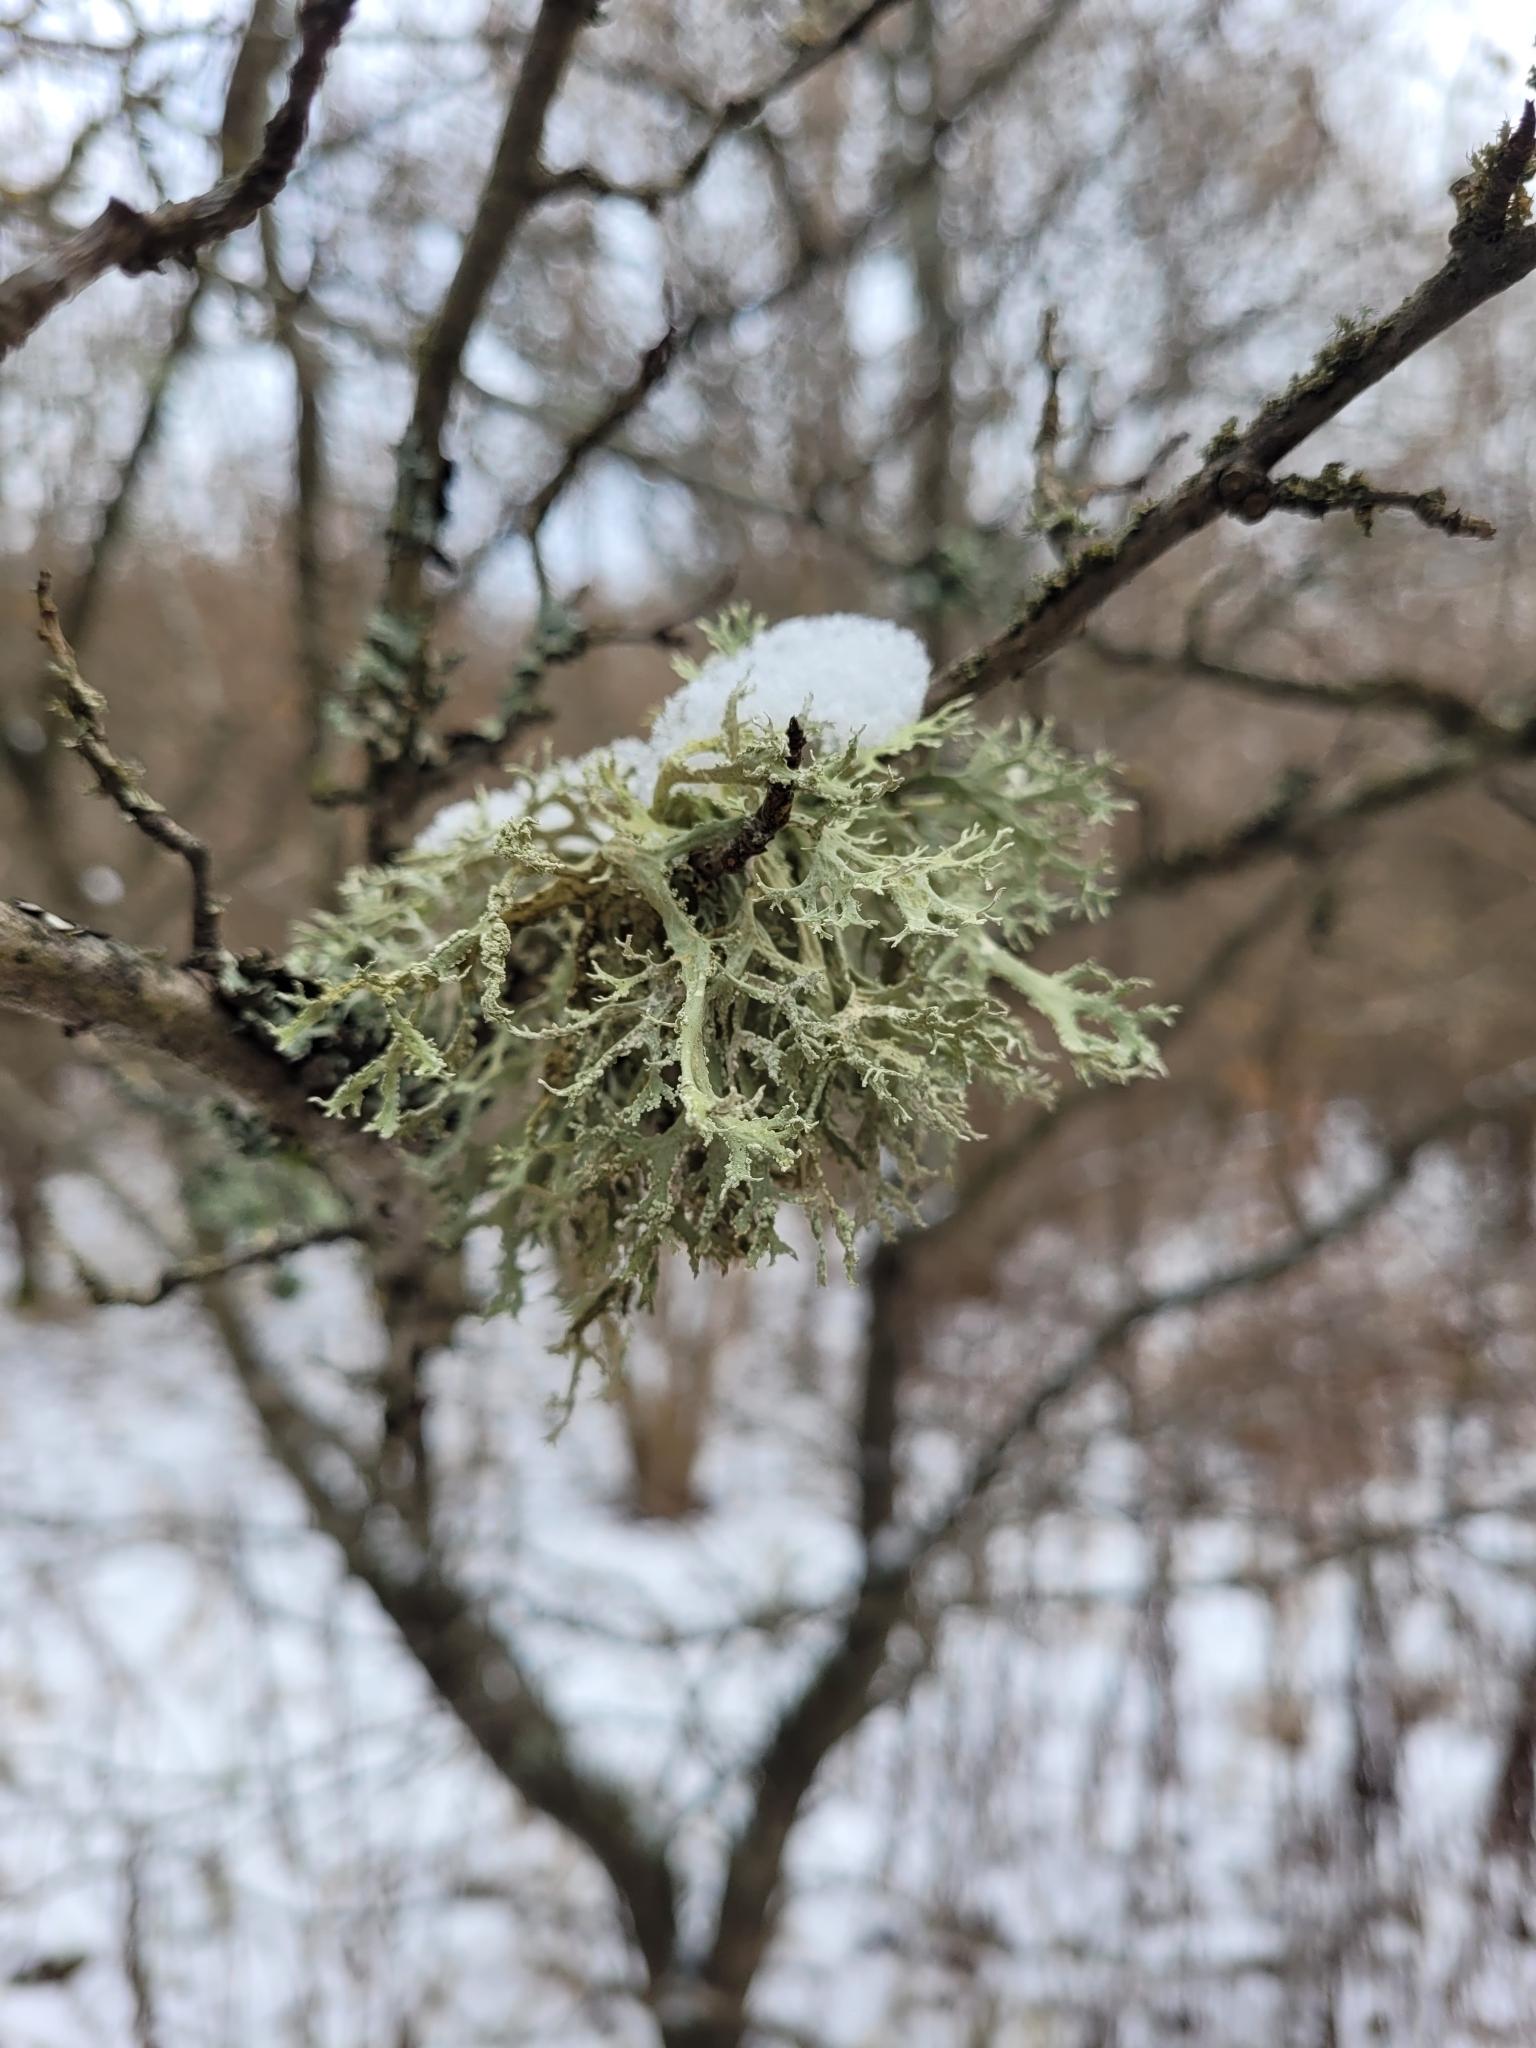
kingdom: Fungi
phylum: Ascomycota
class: Lecanoromycetes
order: Lecanorales
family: Parmeliaceae
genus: Evernia
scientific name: Evernia prunastri
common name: Oak moss
